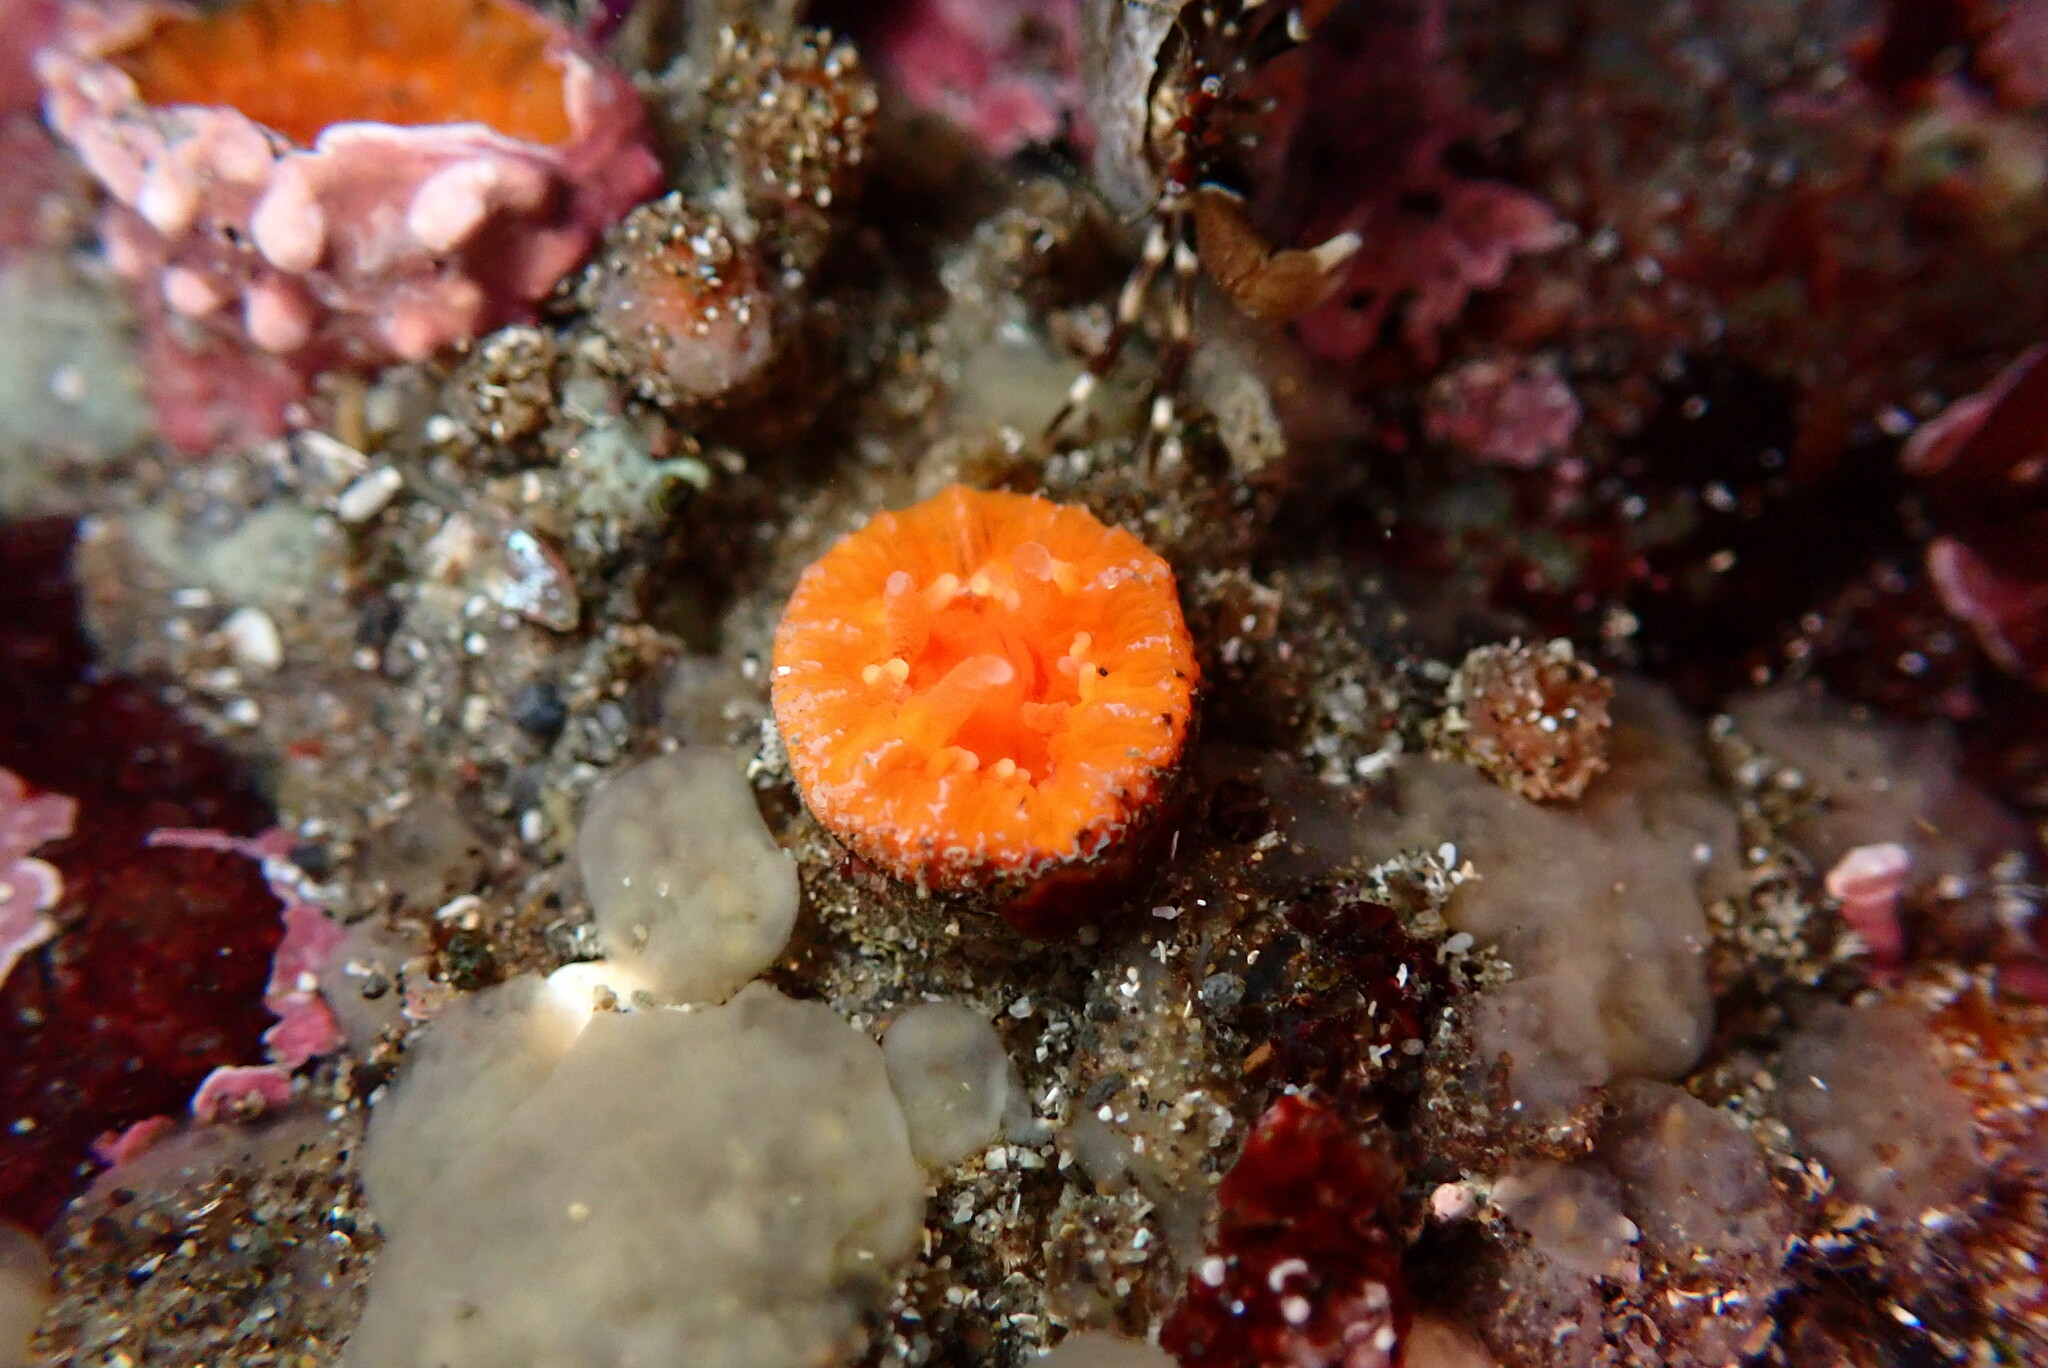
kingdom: Animalia
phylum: Cnidaria
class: Anthozoa
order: Scleractinia
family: Dendrophylliidae
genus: Balanophyllia
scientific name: Balanophyllia elegans
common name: Orange stony coral
